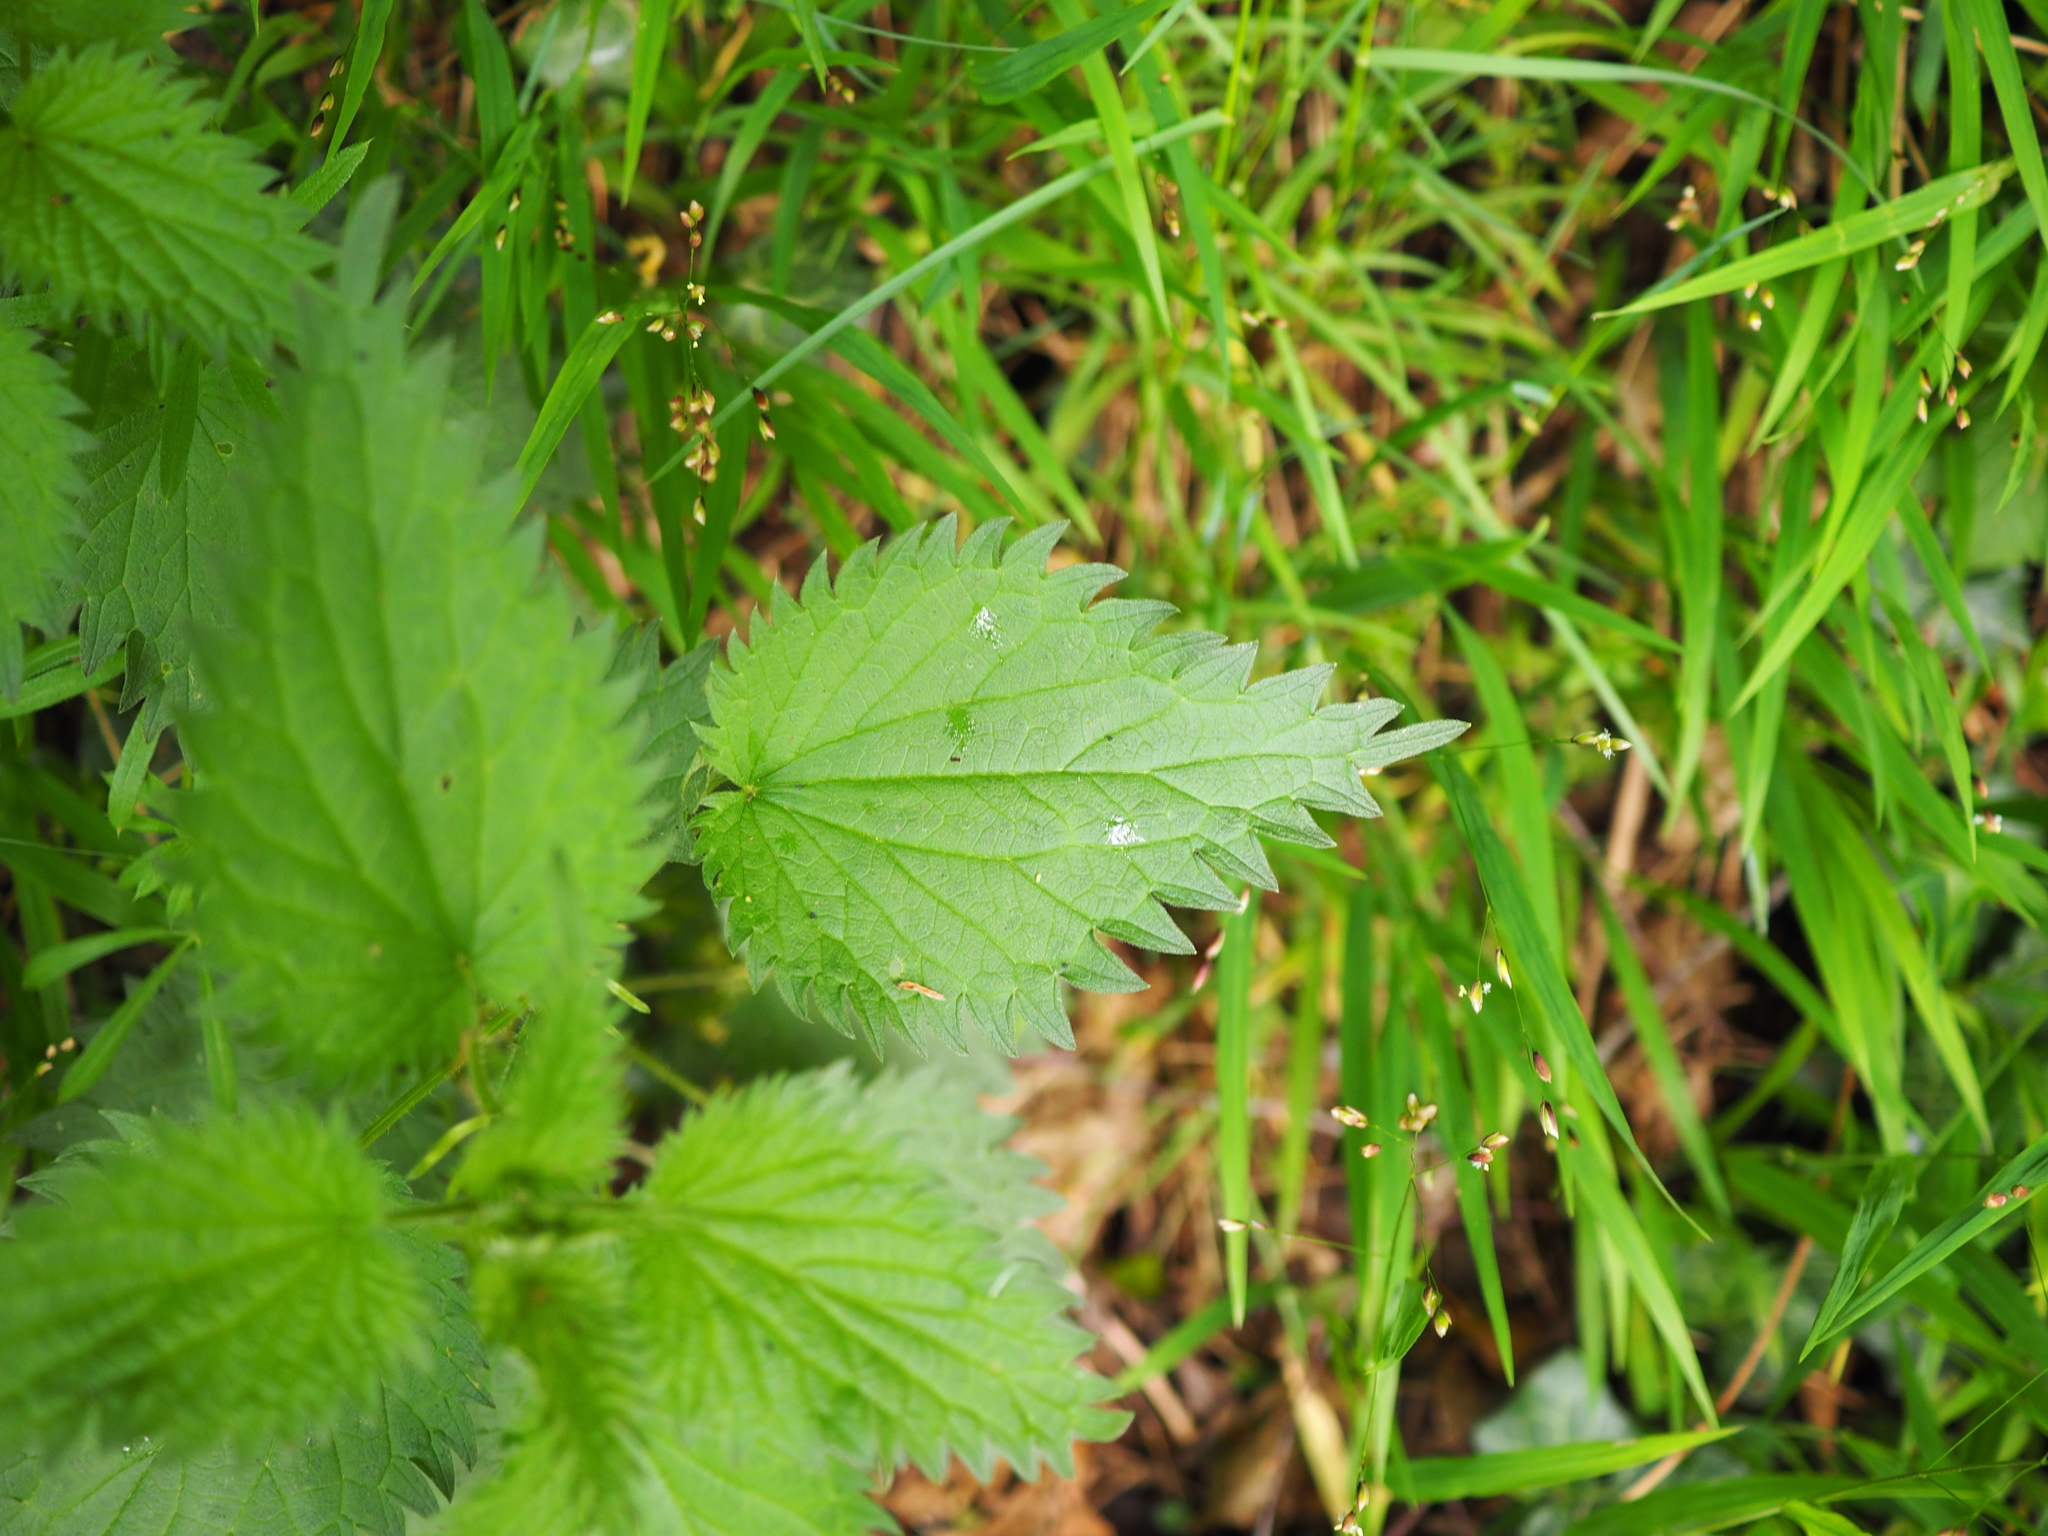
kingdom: Plantae
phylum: Tracheophyta
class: Magnoliopsida
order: Rosales
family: Urticaceae
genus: Urtica
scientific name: Urtica dioica
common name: Common nettle
